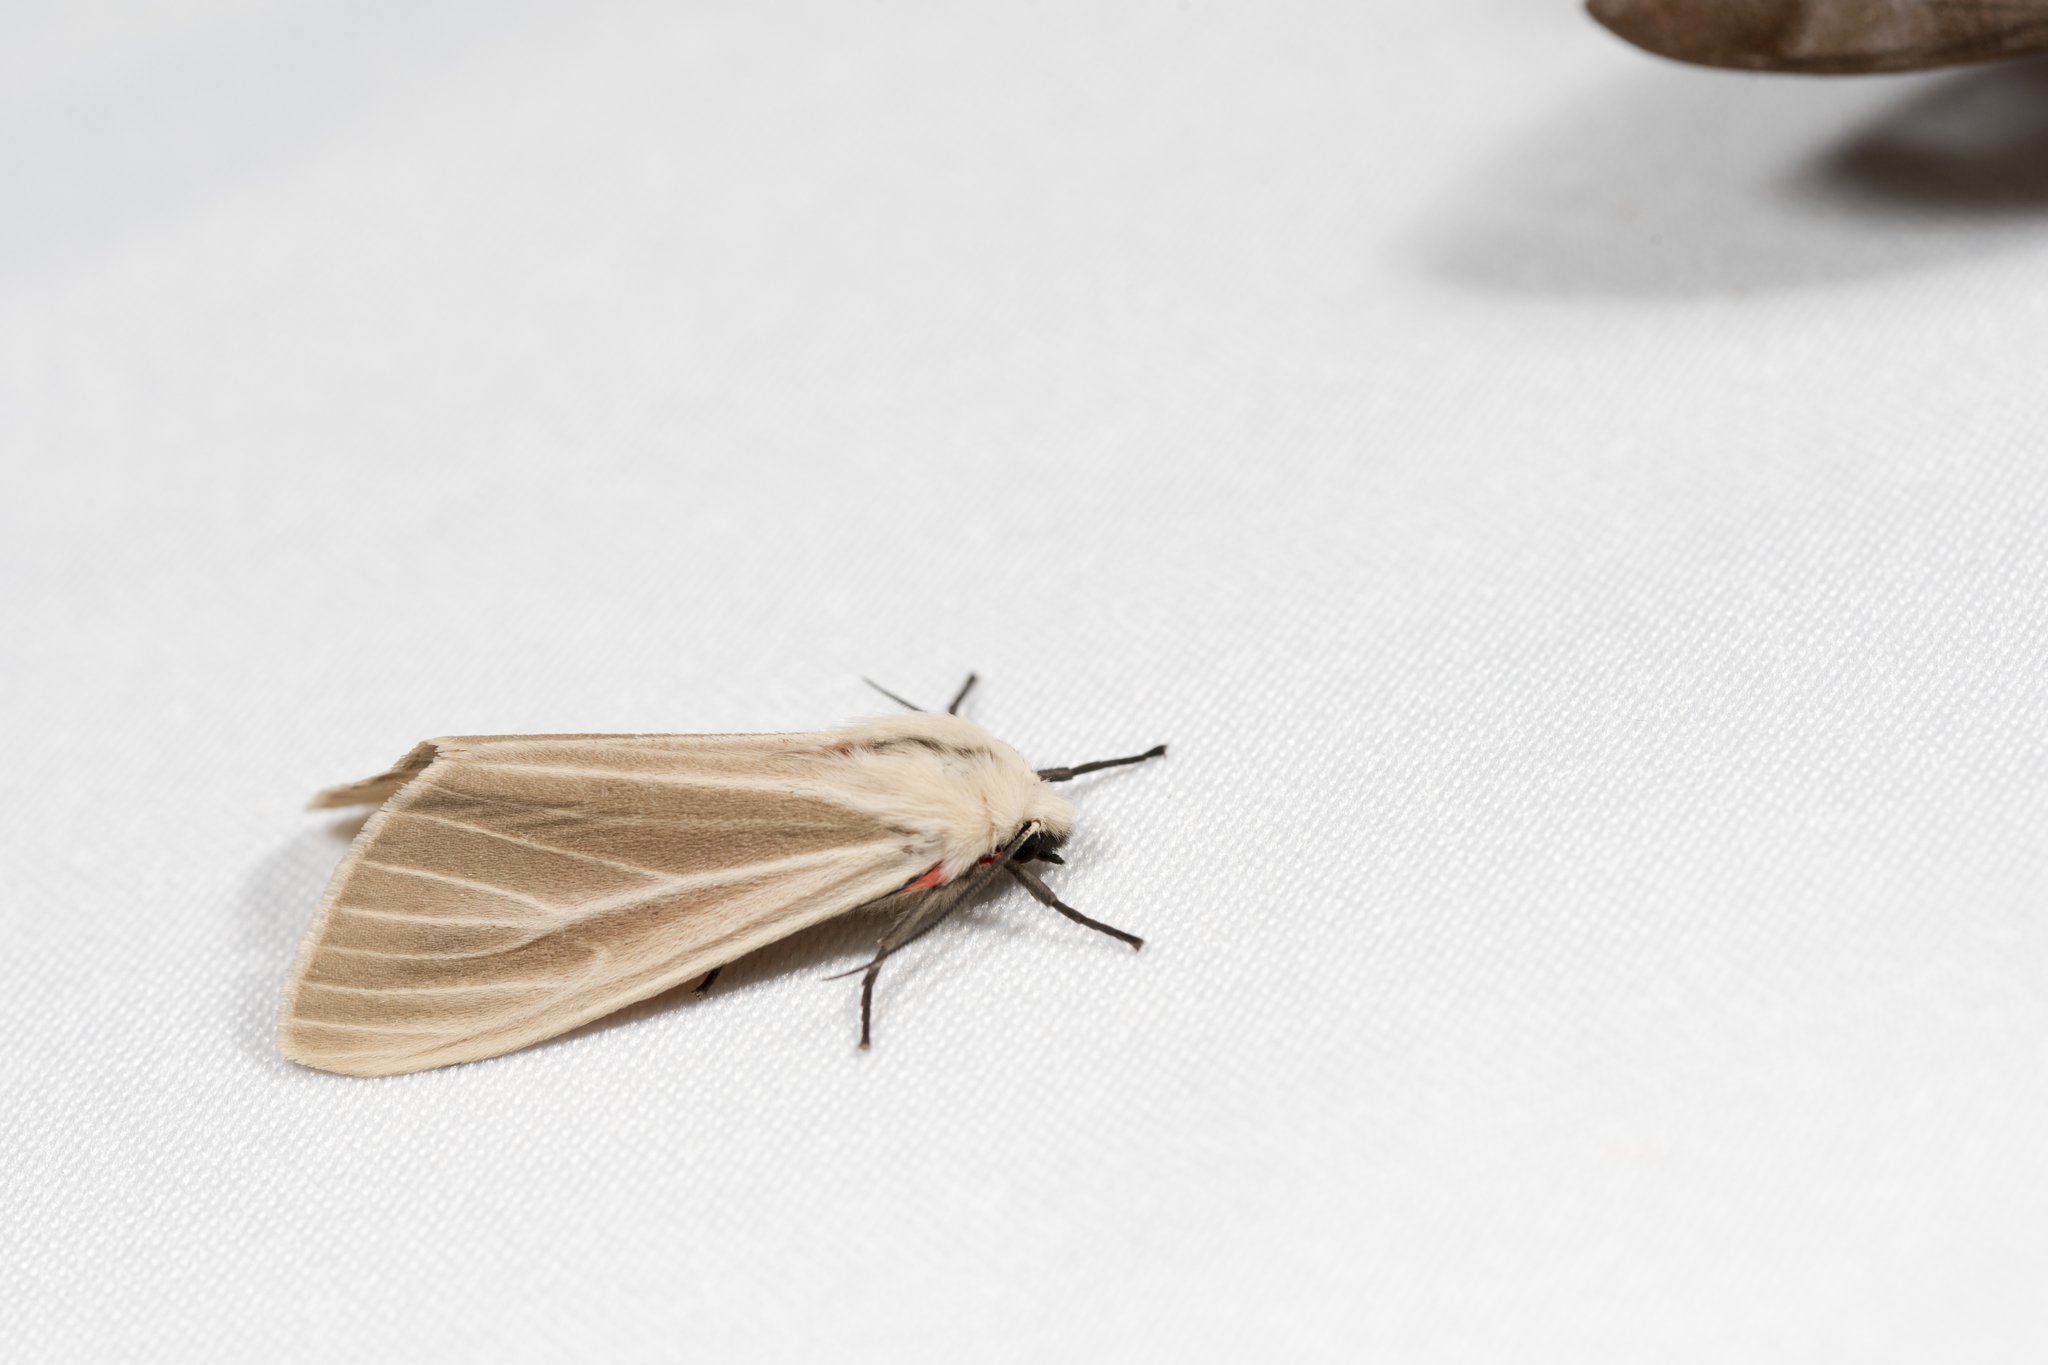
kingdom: Animalia
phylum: Arthropoda
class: Insecta
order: Lepidoptera
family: Erebidae
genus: Spilarctia
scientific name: Spilarctia contaminata
